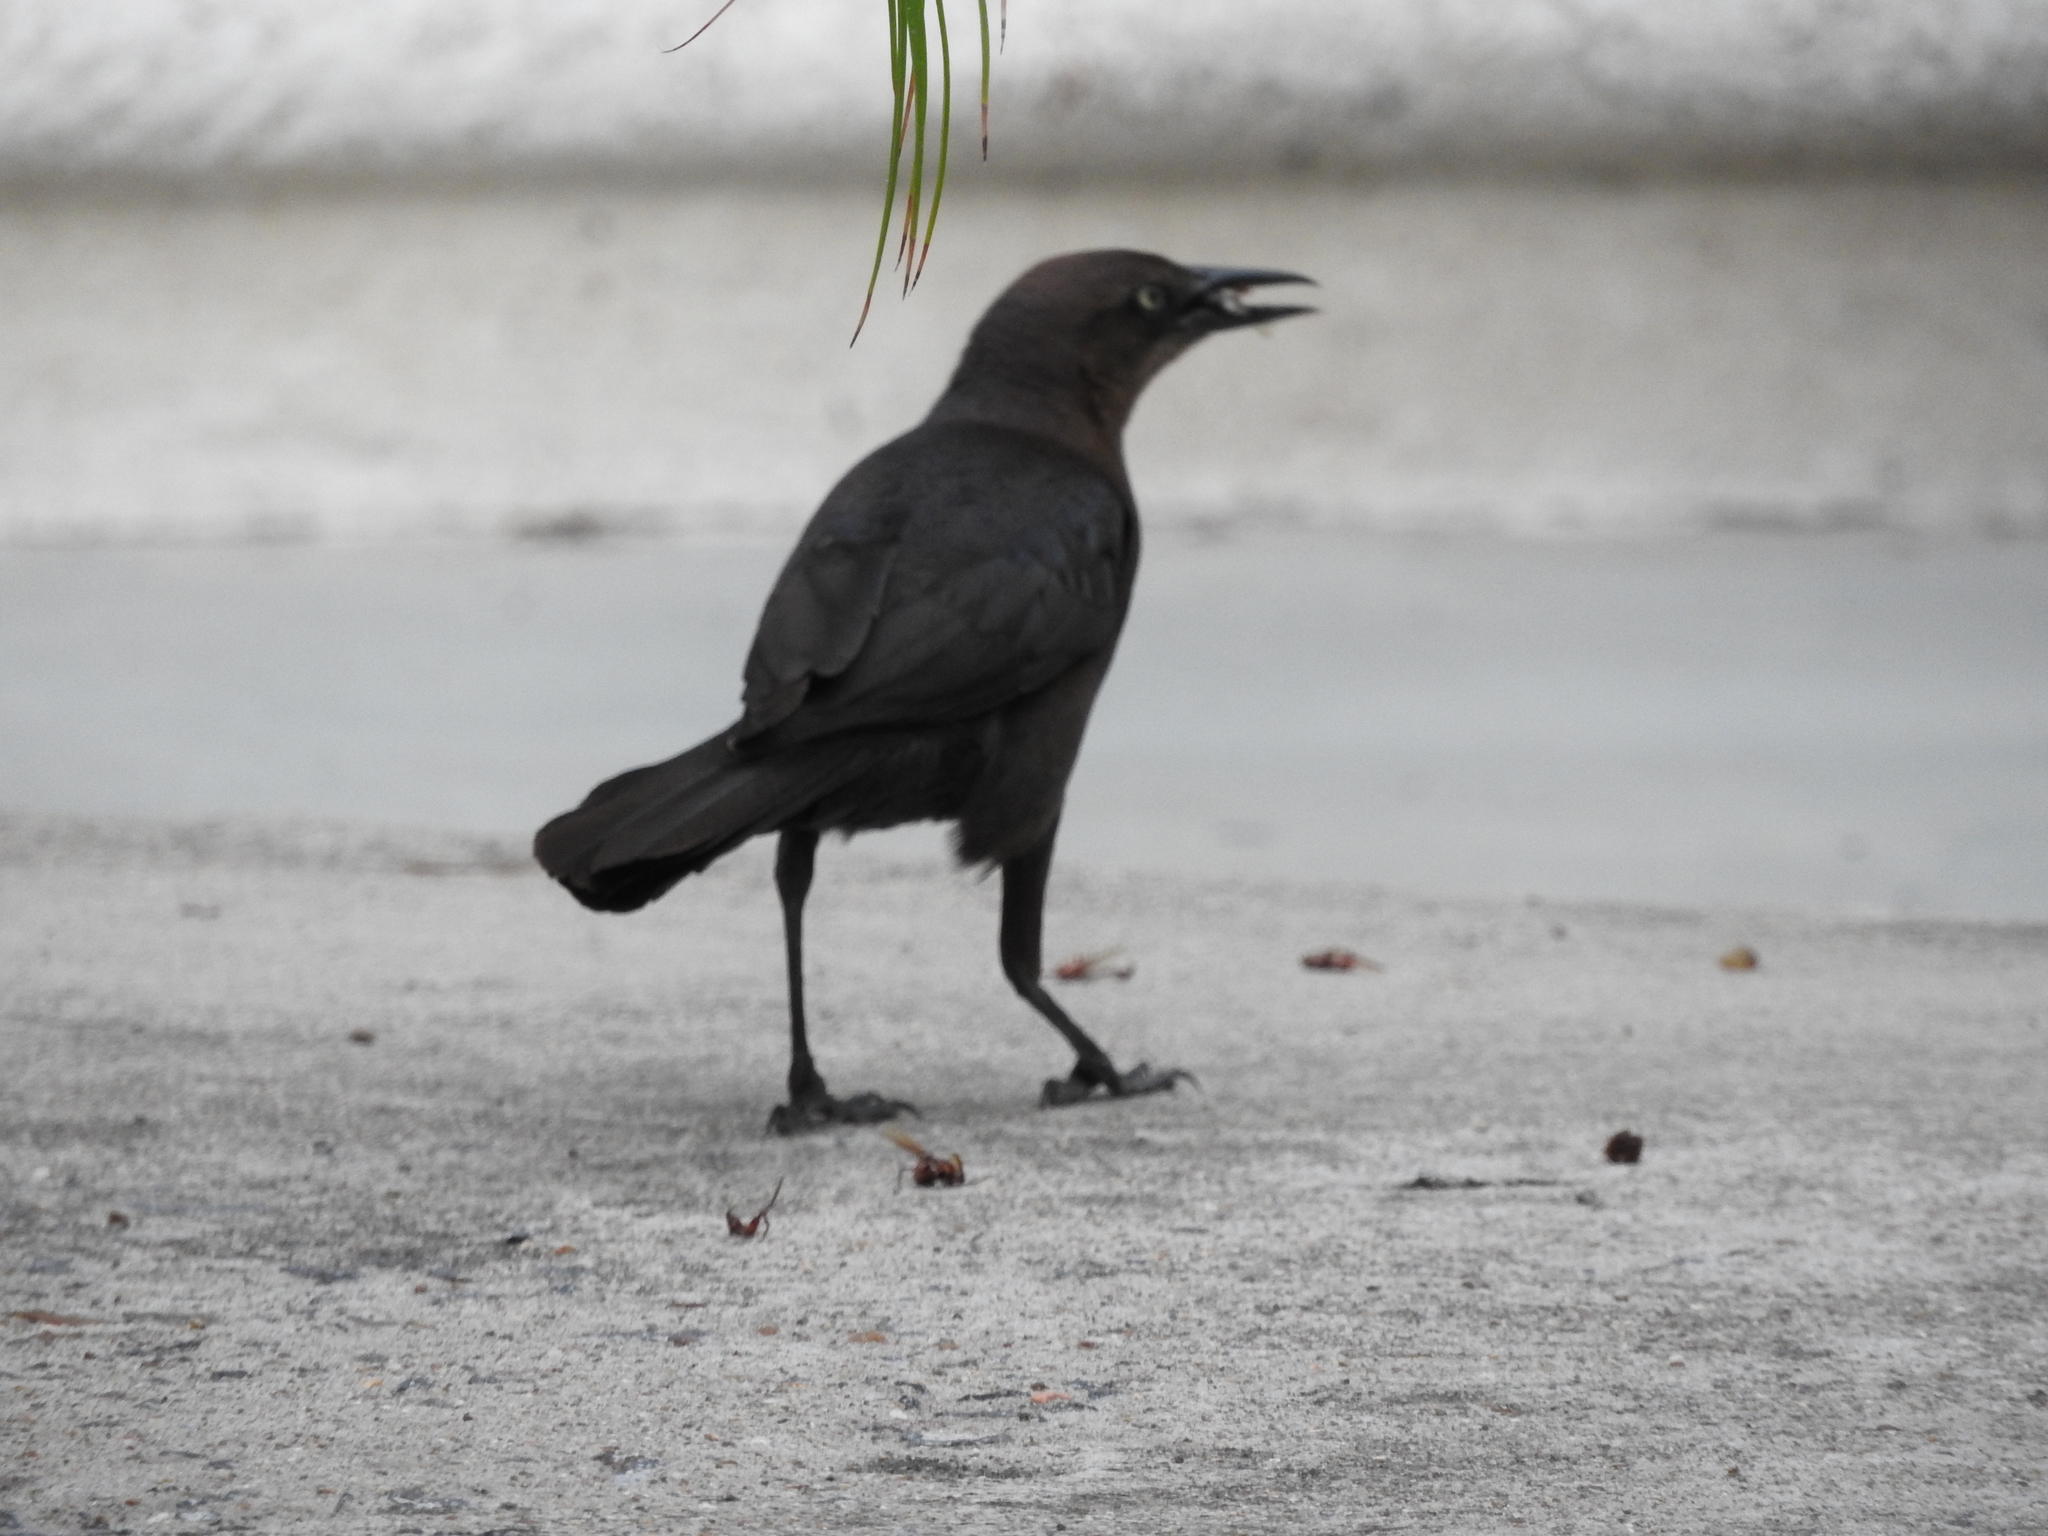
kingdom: Animalia
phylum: Chordata
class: Aves
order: Passeriformes
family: Icteridae
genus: Quiscalus
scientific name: Quiscalus mexicanus
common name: Great-tailed grackle
